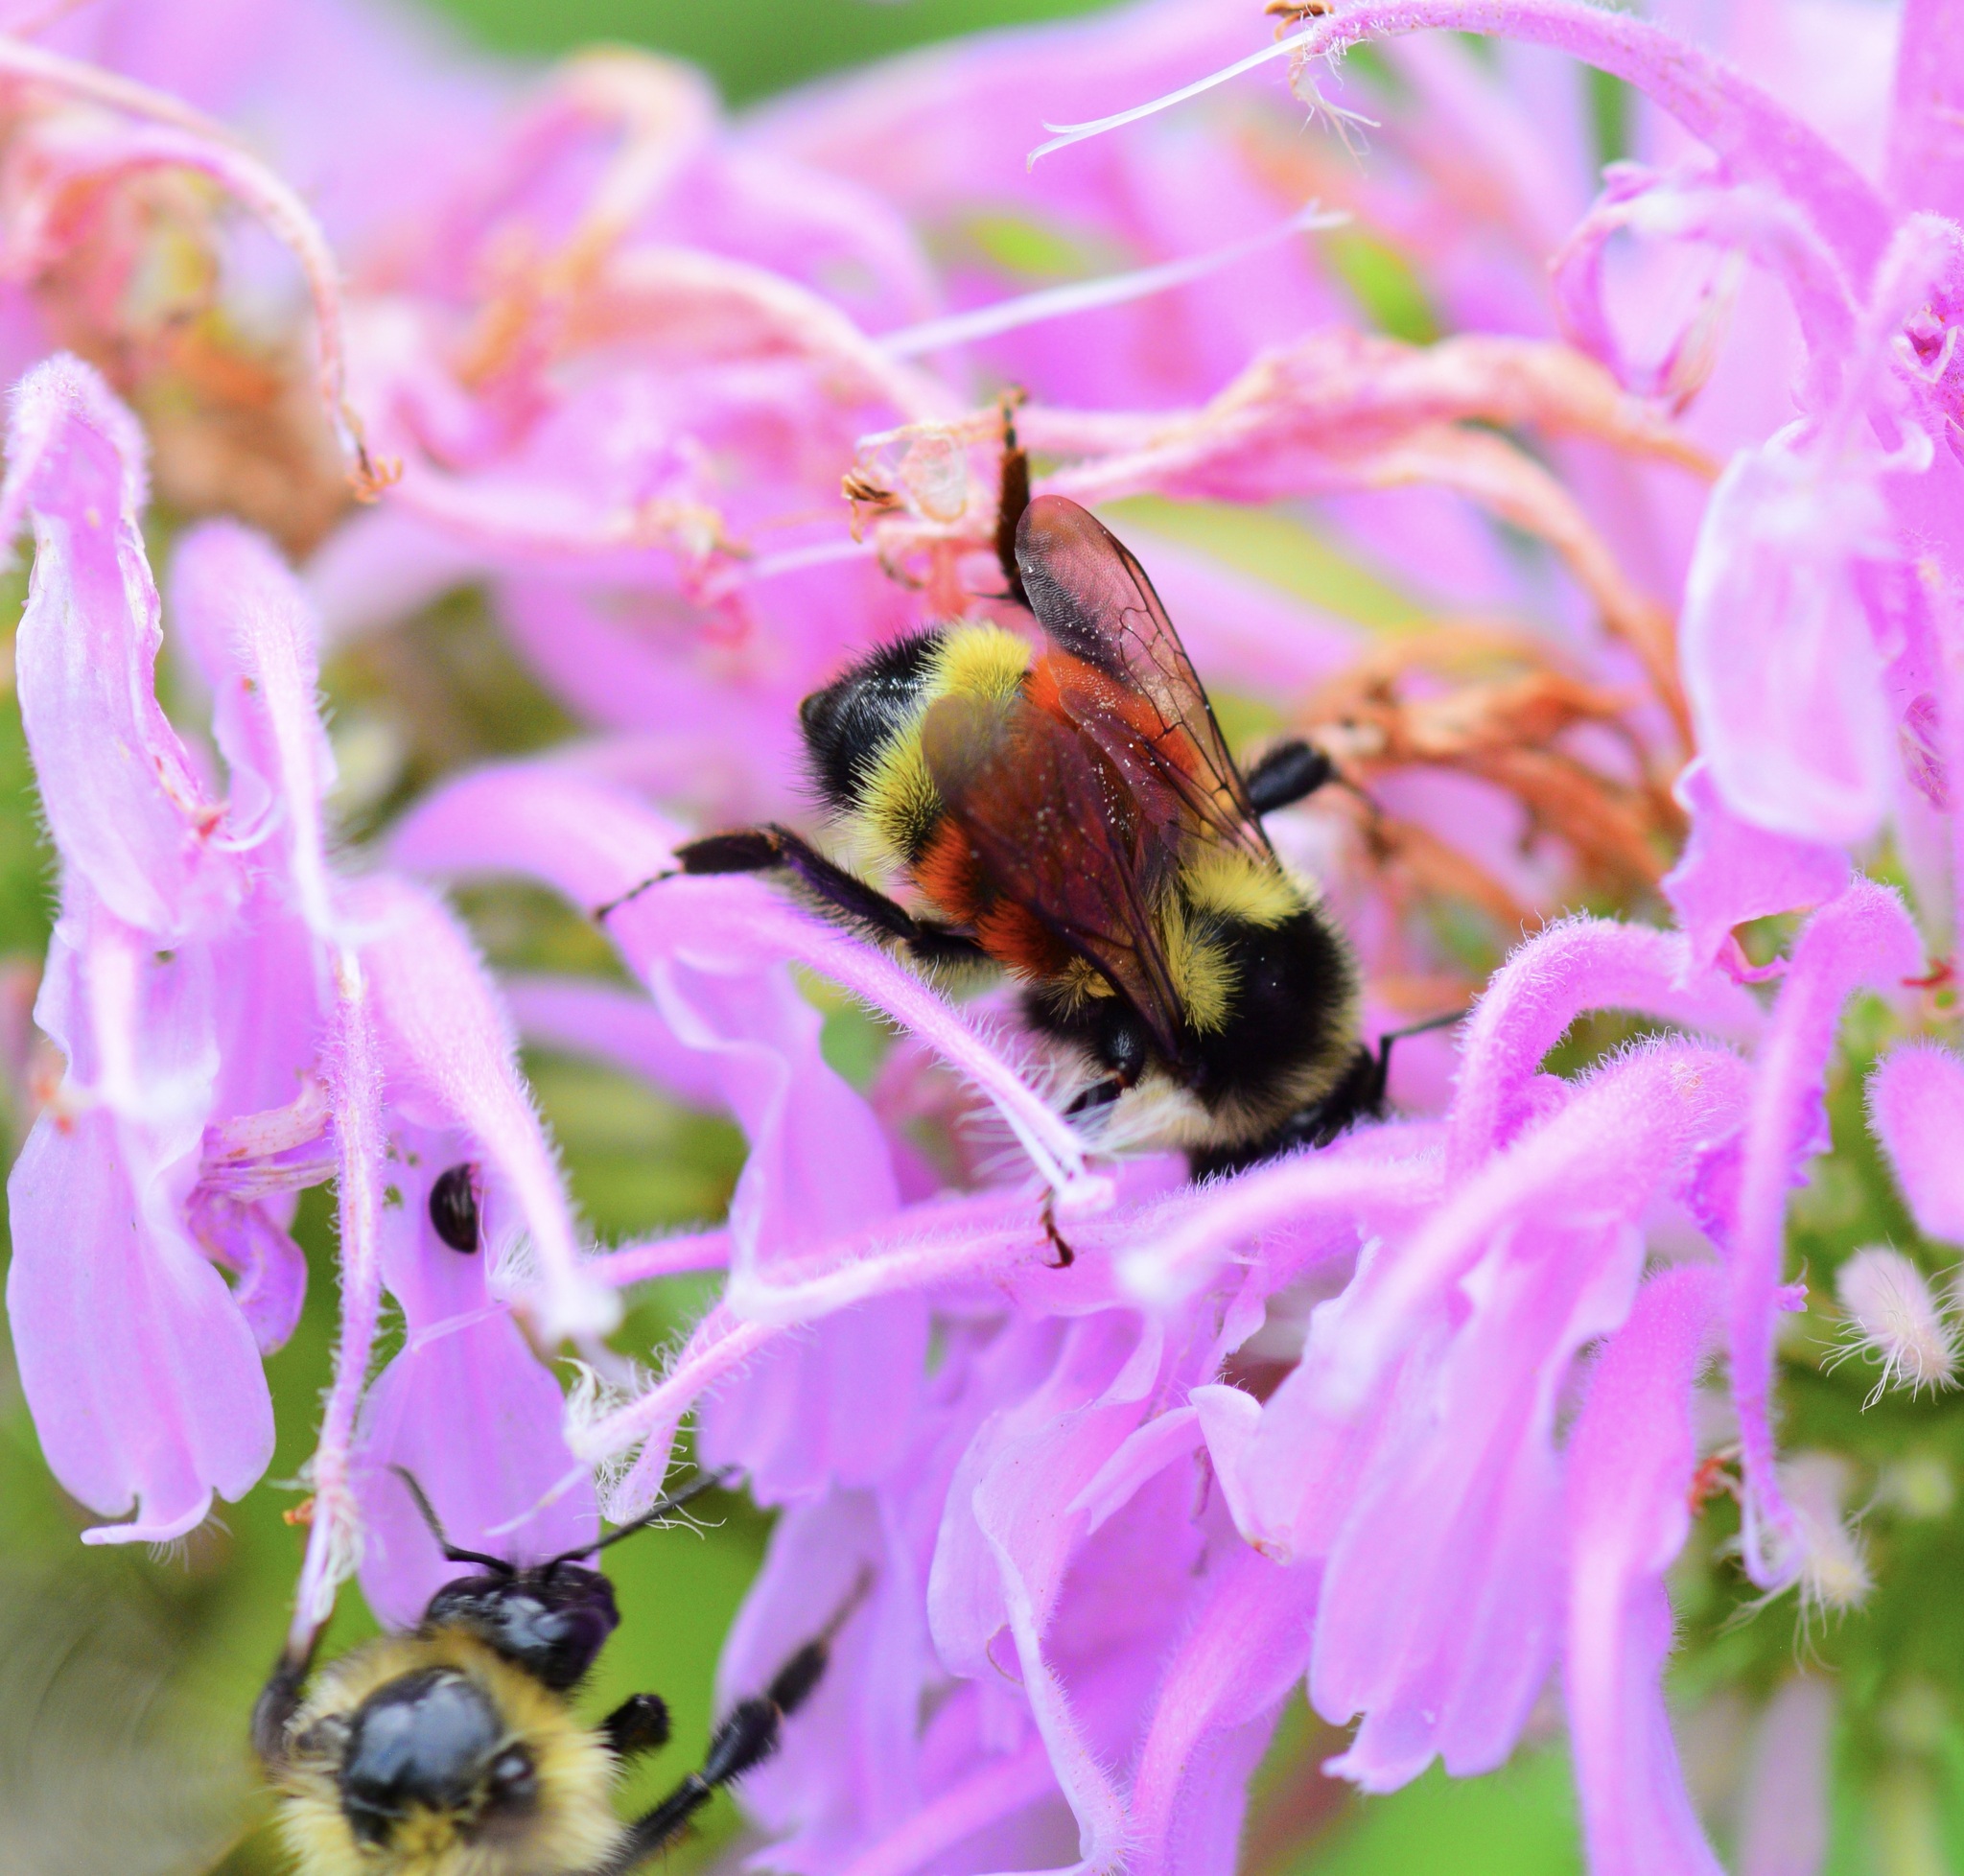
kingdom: Animalia
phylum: Arthropoda
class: Insecta
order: Hymenoptera
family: Apidae
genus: Bombus
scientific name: Bombus ternarius
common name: Tri-colored bumble bee
